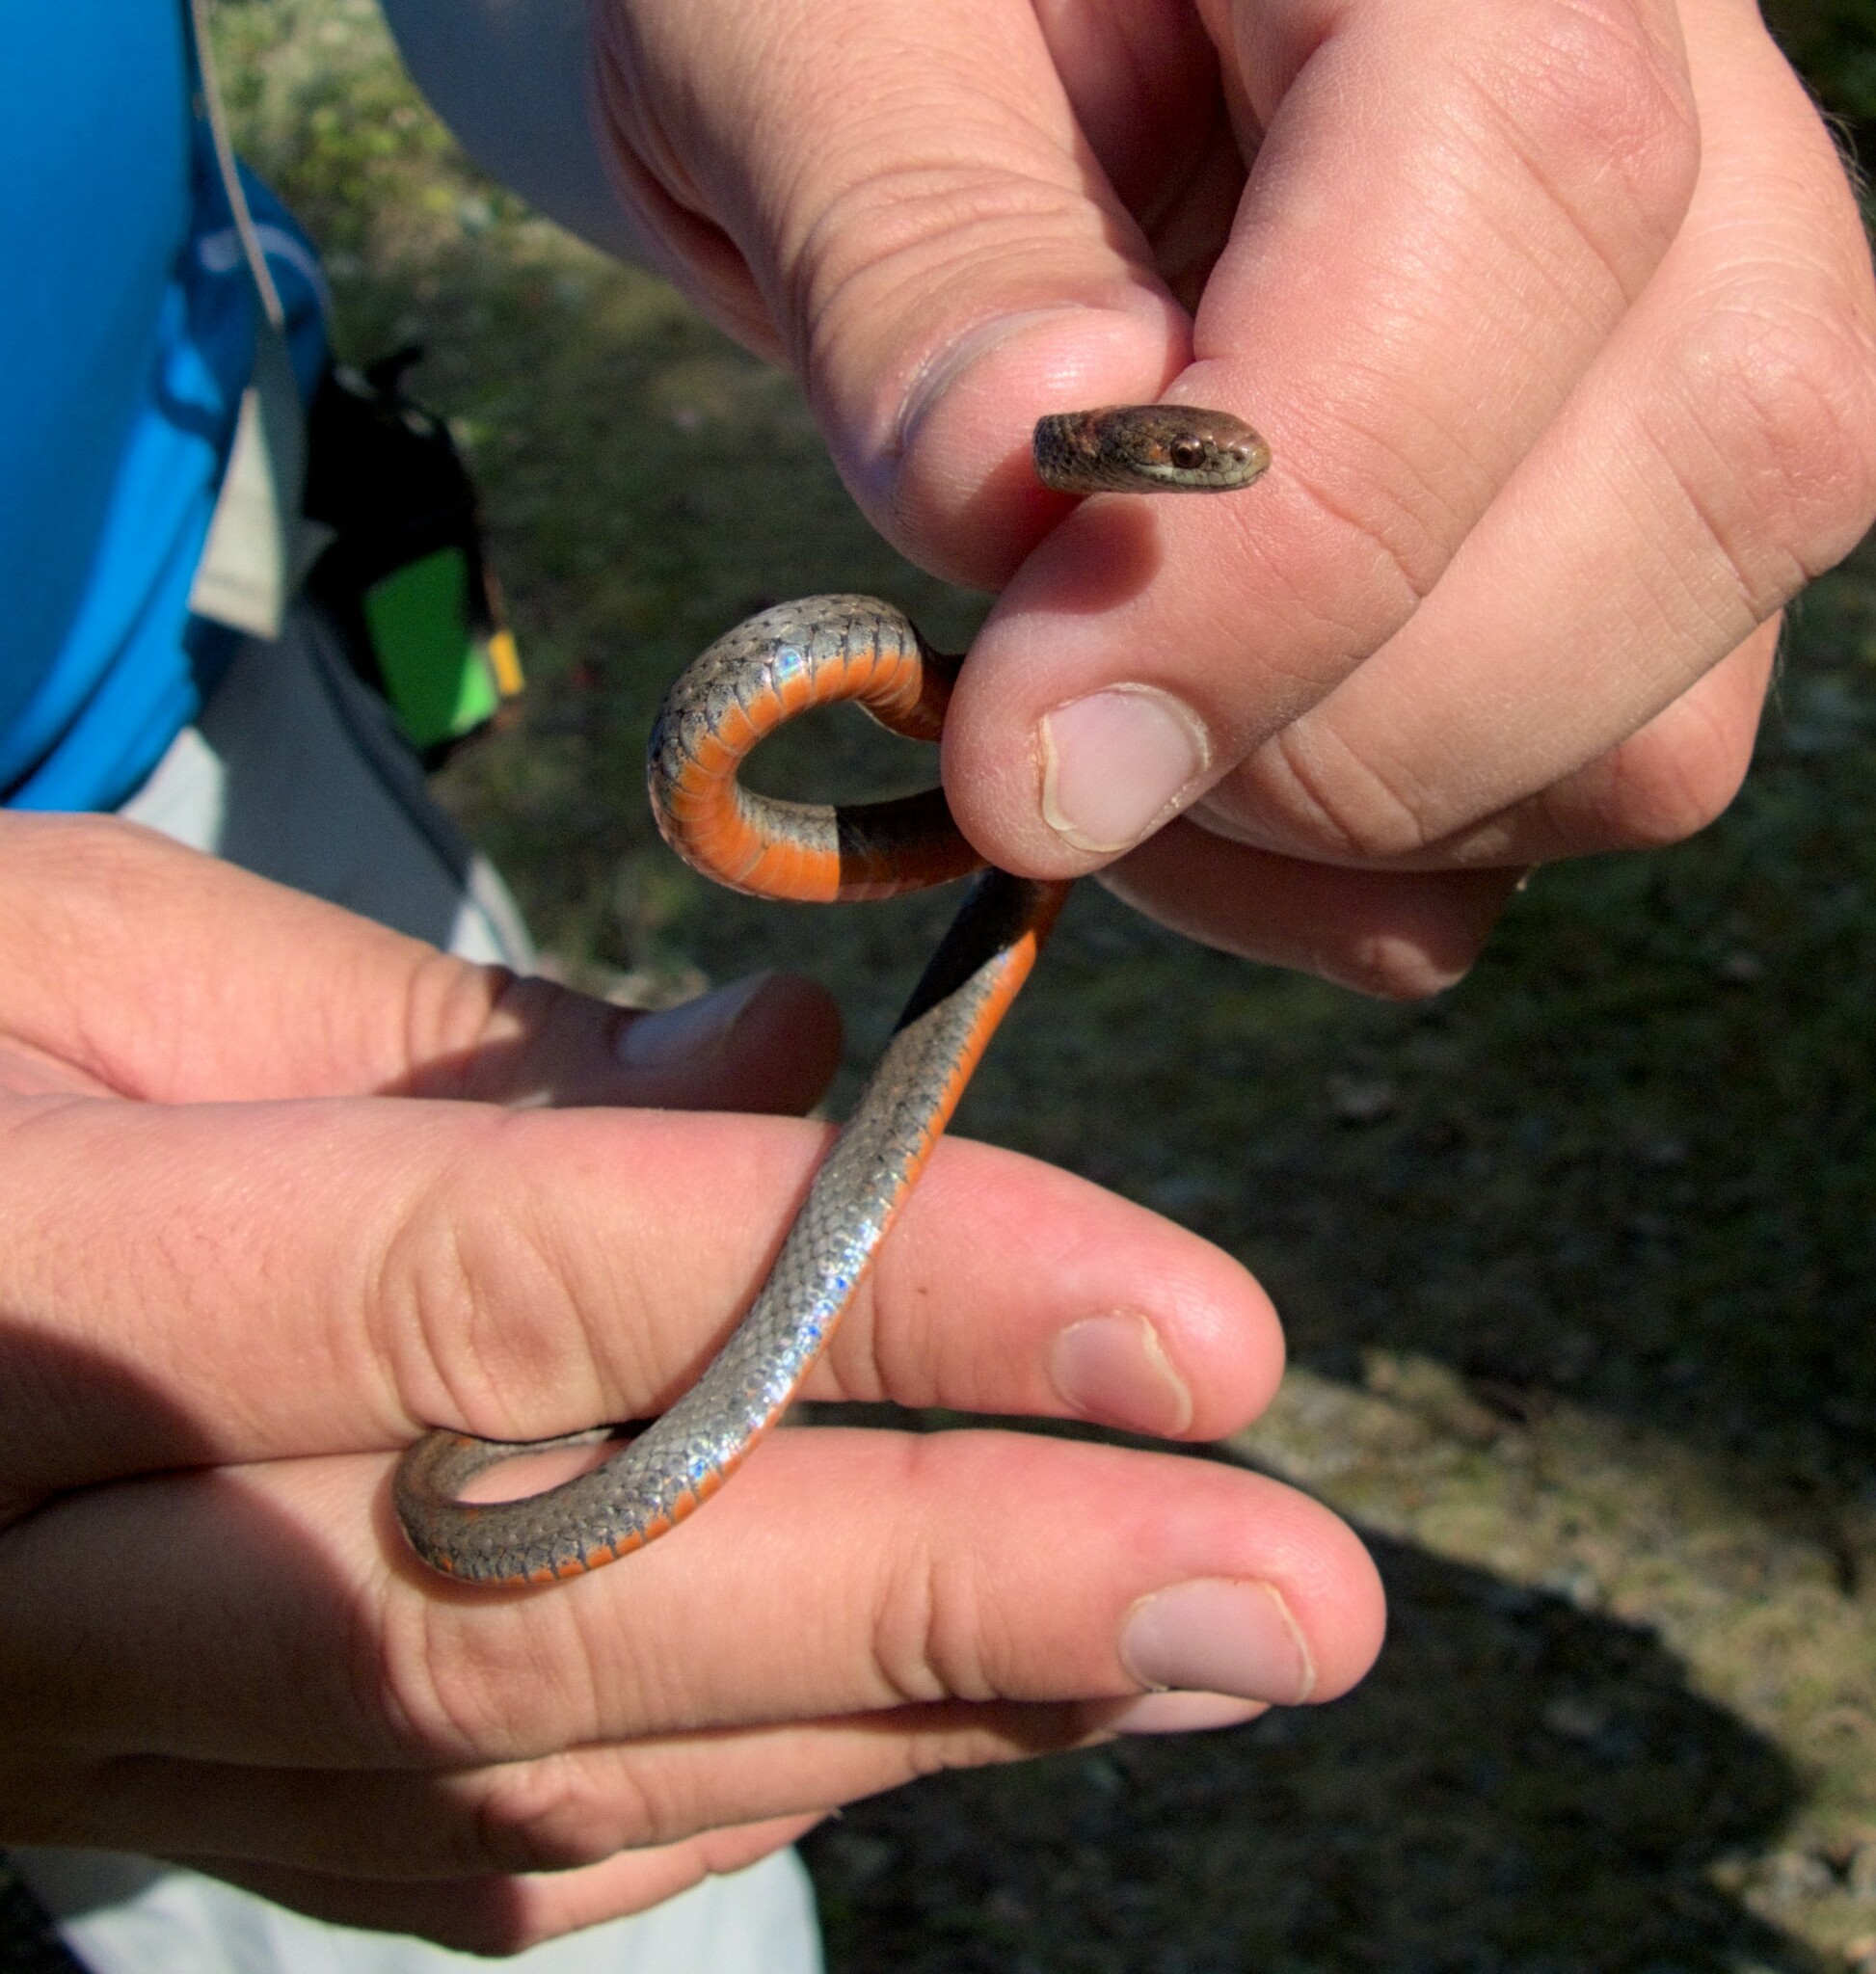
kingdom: Animalia
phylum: Chordata
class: Squamata
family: Colubridae
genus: Storeria
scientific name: Storeria occipitomaculata
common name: Redbelly snake
